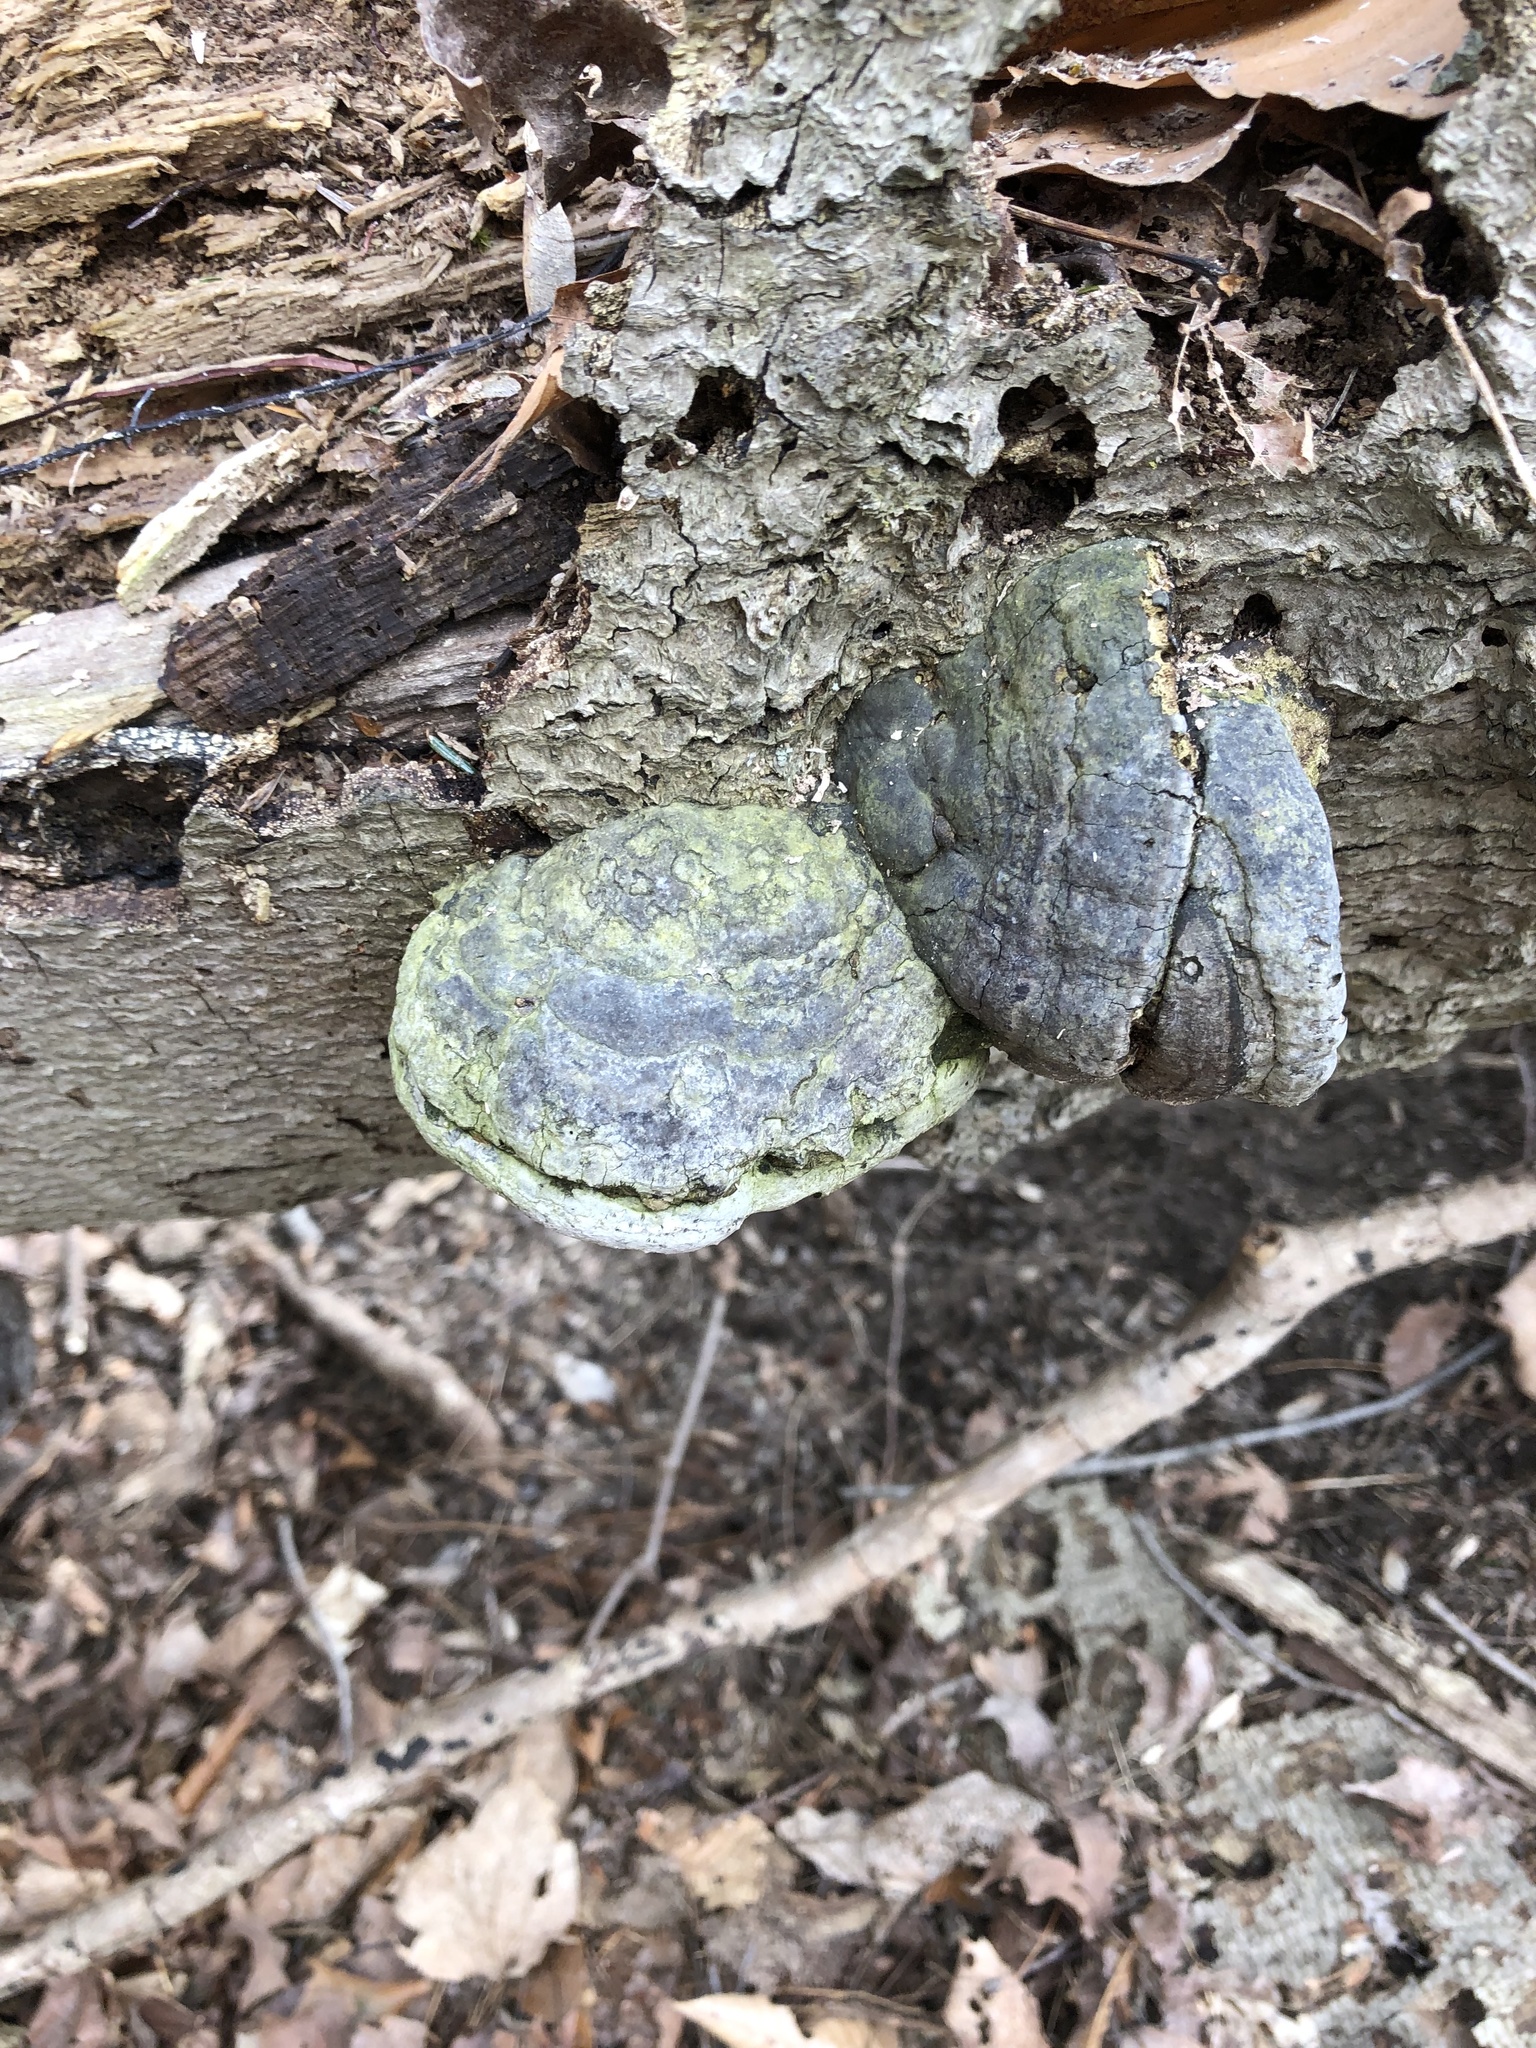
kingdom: Fungi
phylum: Basidiomycota
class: Agaricomycetes
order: Polyporales
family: Polyporaceae
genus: Fomes
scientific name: Fomes fomentarius
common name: Hoof fungus
